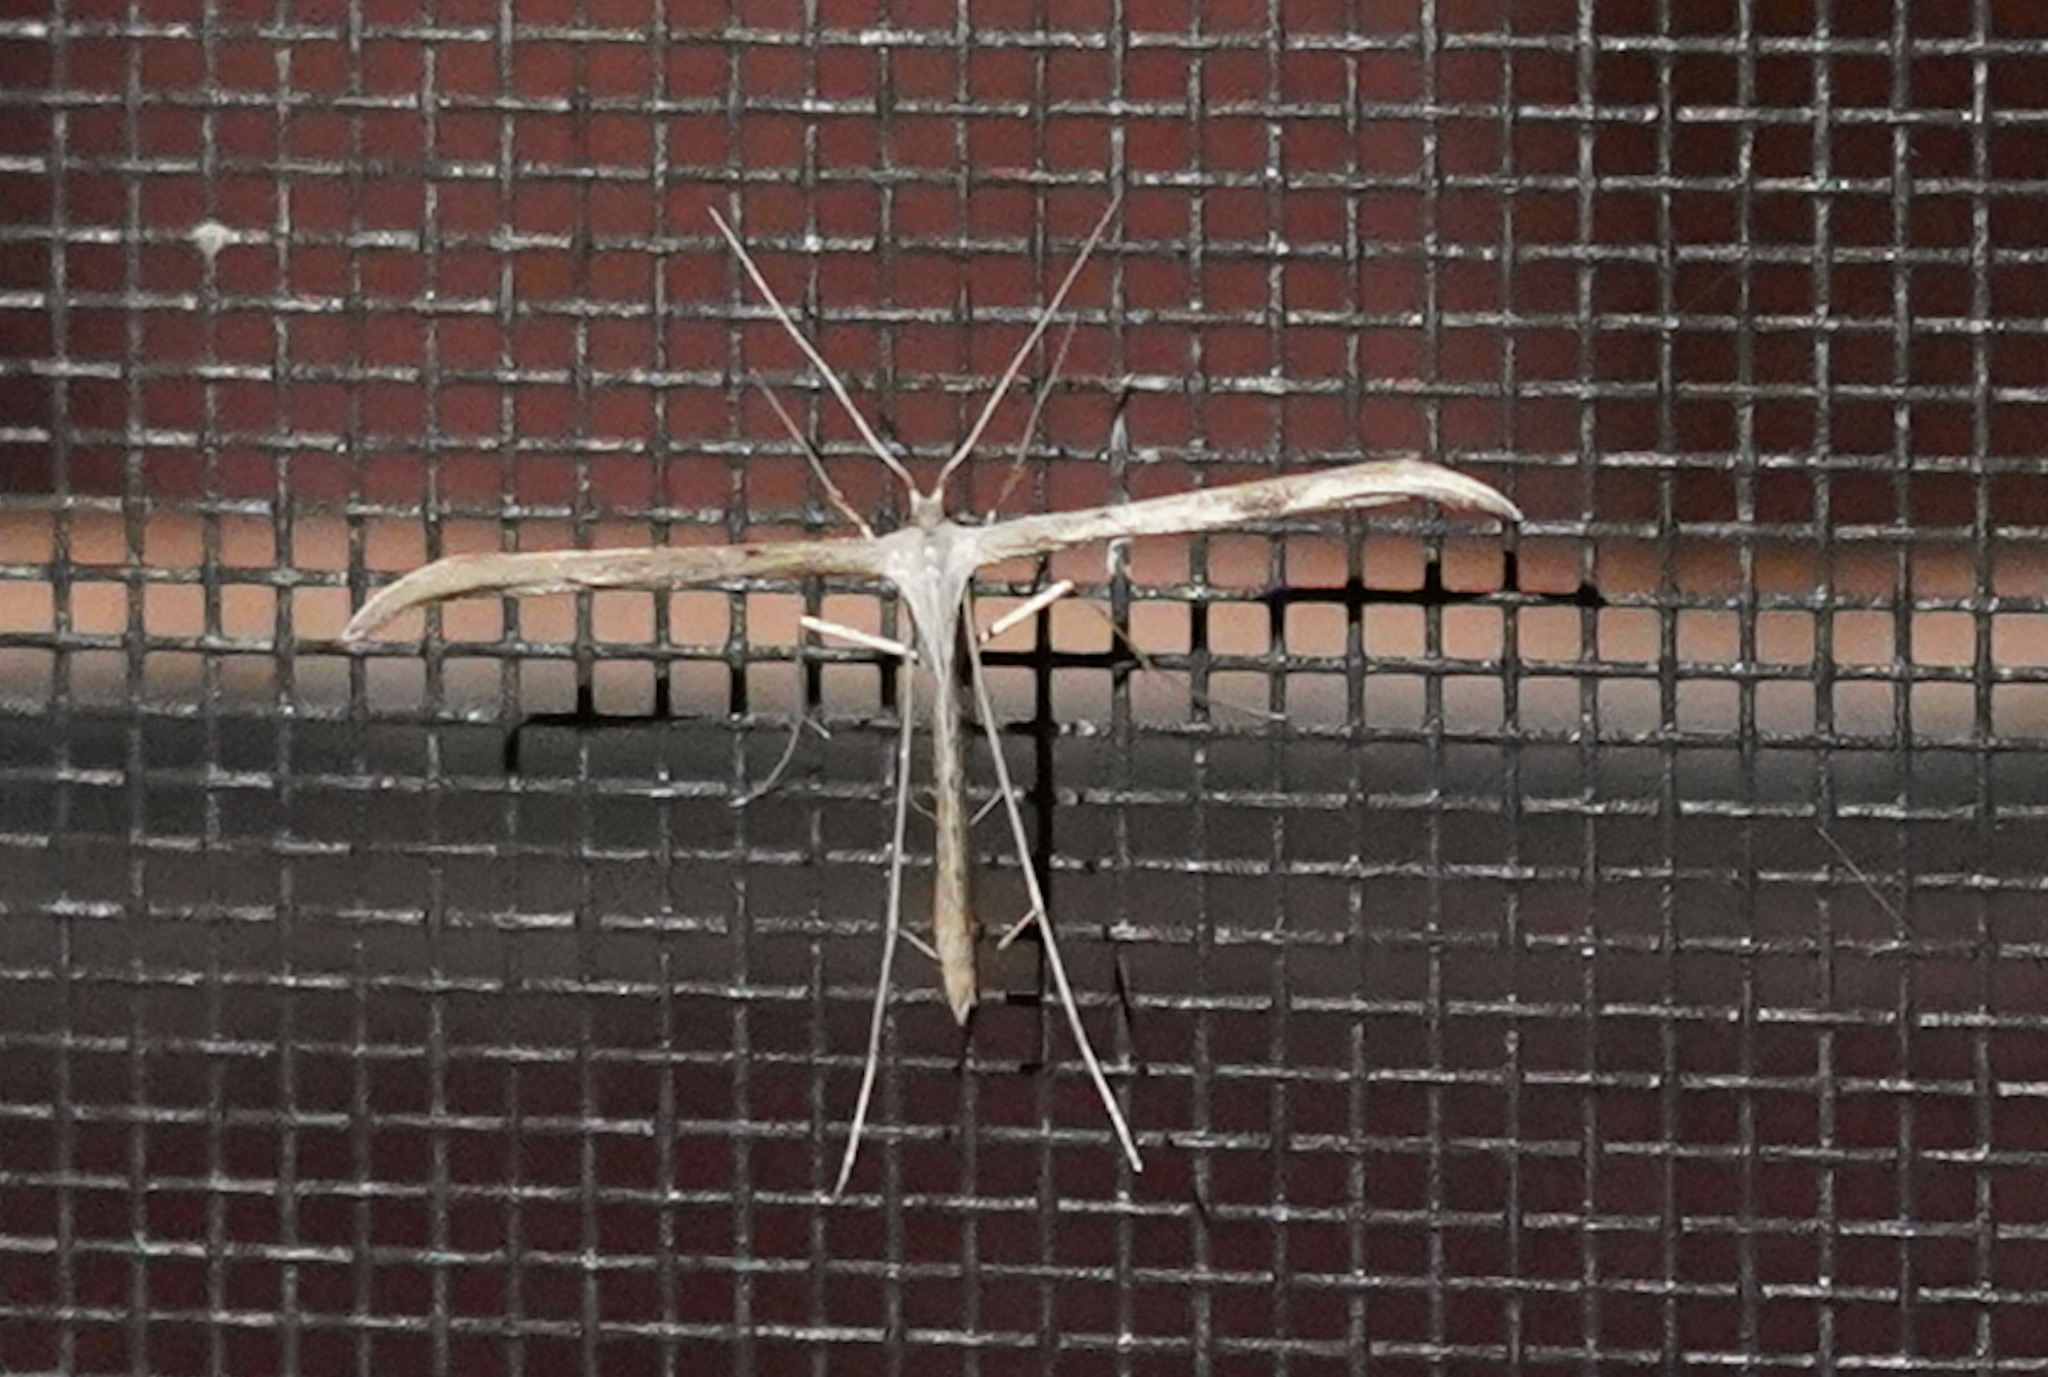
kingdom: Animalia
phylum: Arthropoda
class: Insecta
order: Lepidoptera
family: Pterophoridae
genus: Emmelina
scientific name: Emmelina monodactyla
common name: Common plume
